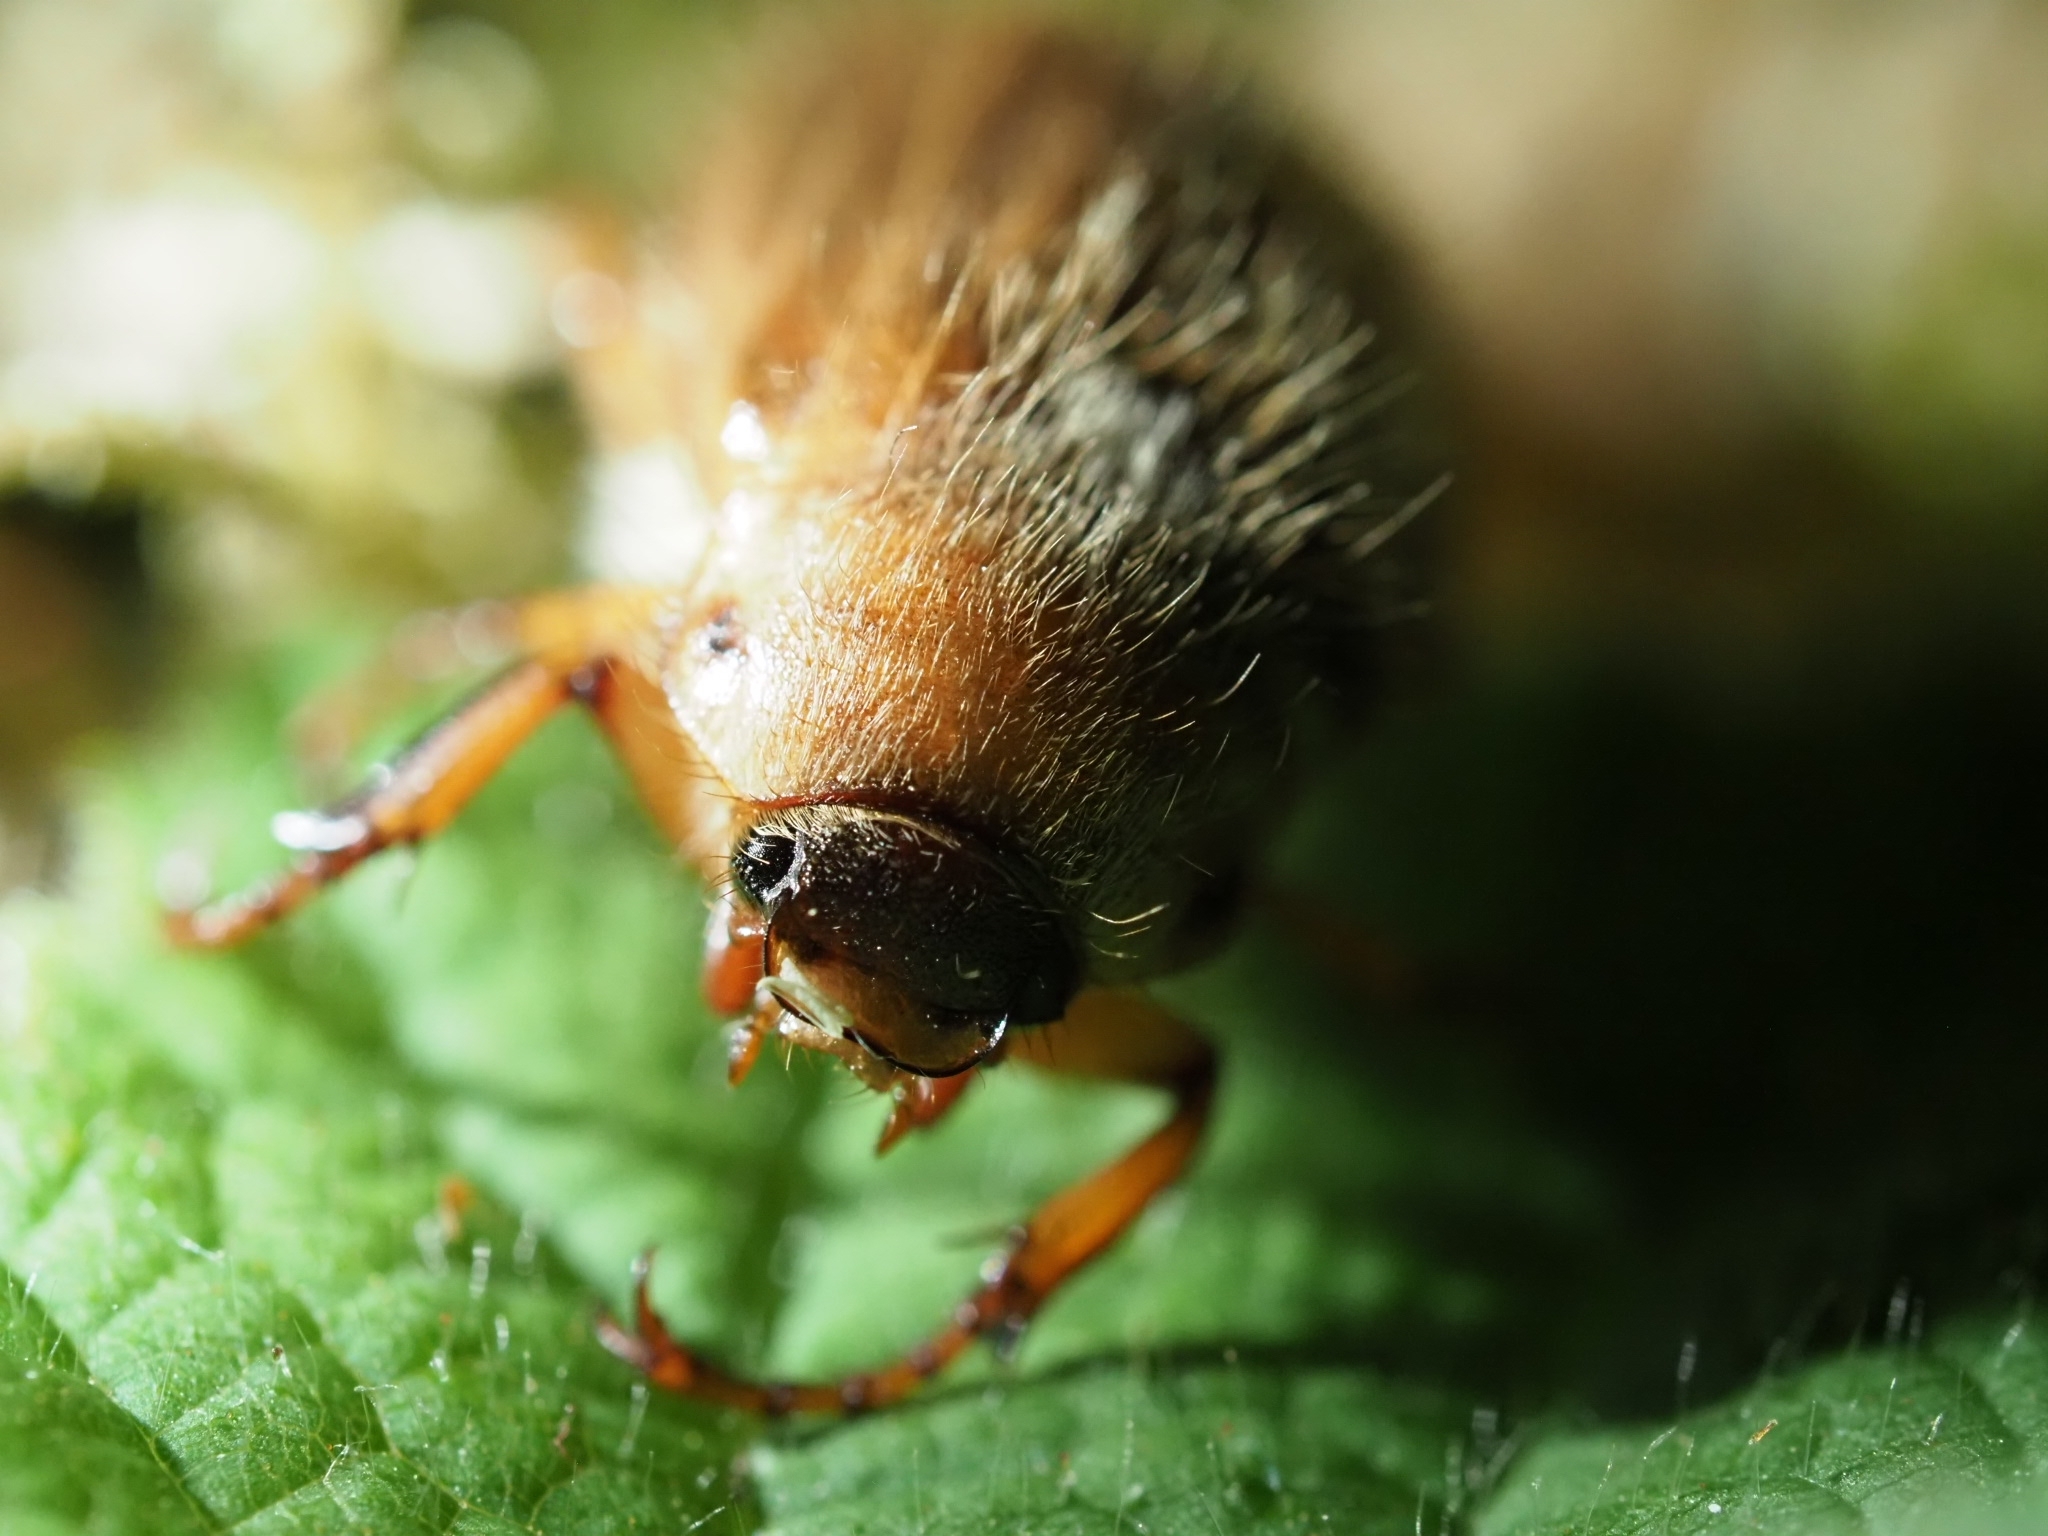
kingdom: Animalia
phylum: Arthropoda
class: Insecta
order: Coleoptera
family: Scarabaeidae
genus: Amphimallon
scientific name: Amphimallon solstitiale
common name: Summer chafer
